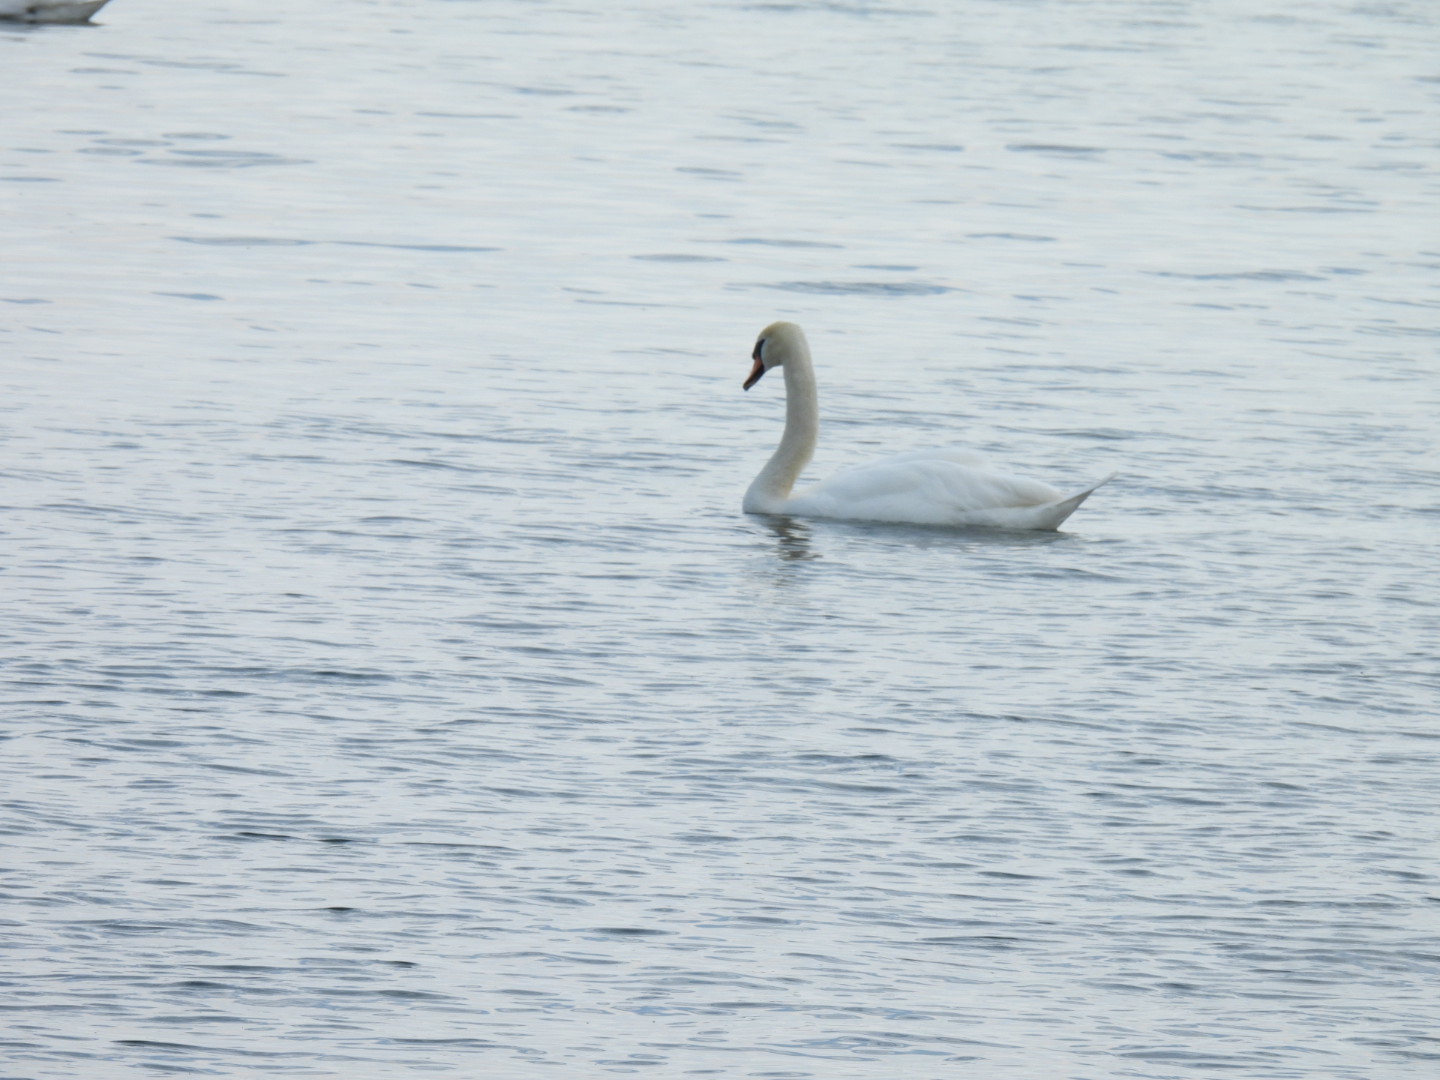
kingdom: Animalia
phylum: Chordata
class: Aves
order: Anseriformes
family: Anatidae
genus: Cygnus
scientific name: Cygnus olor
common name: Mute swan
